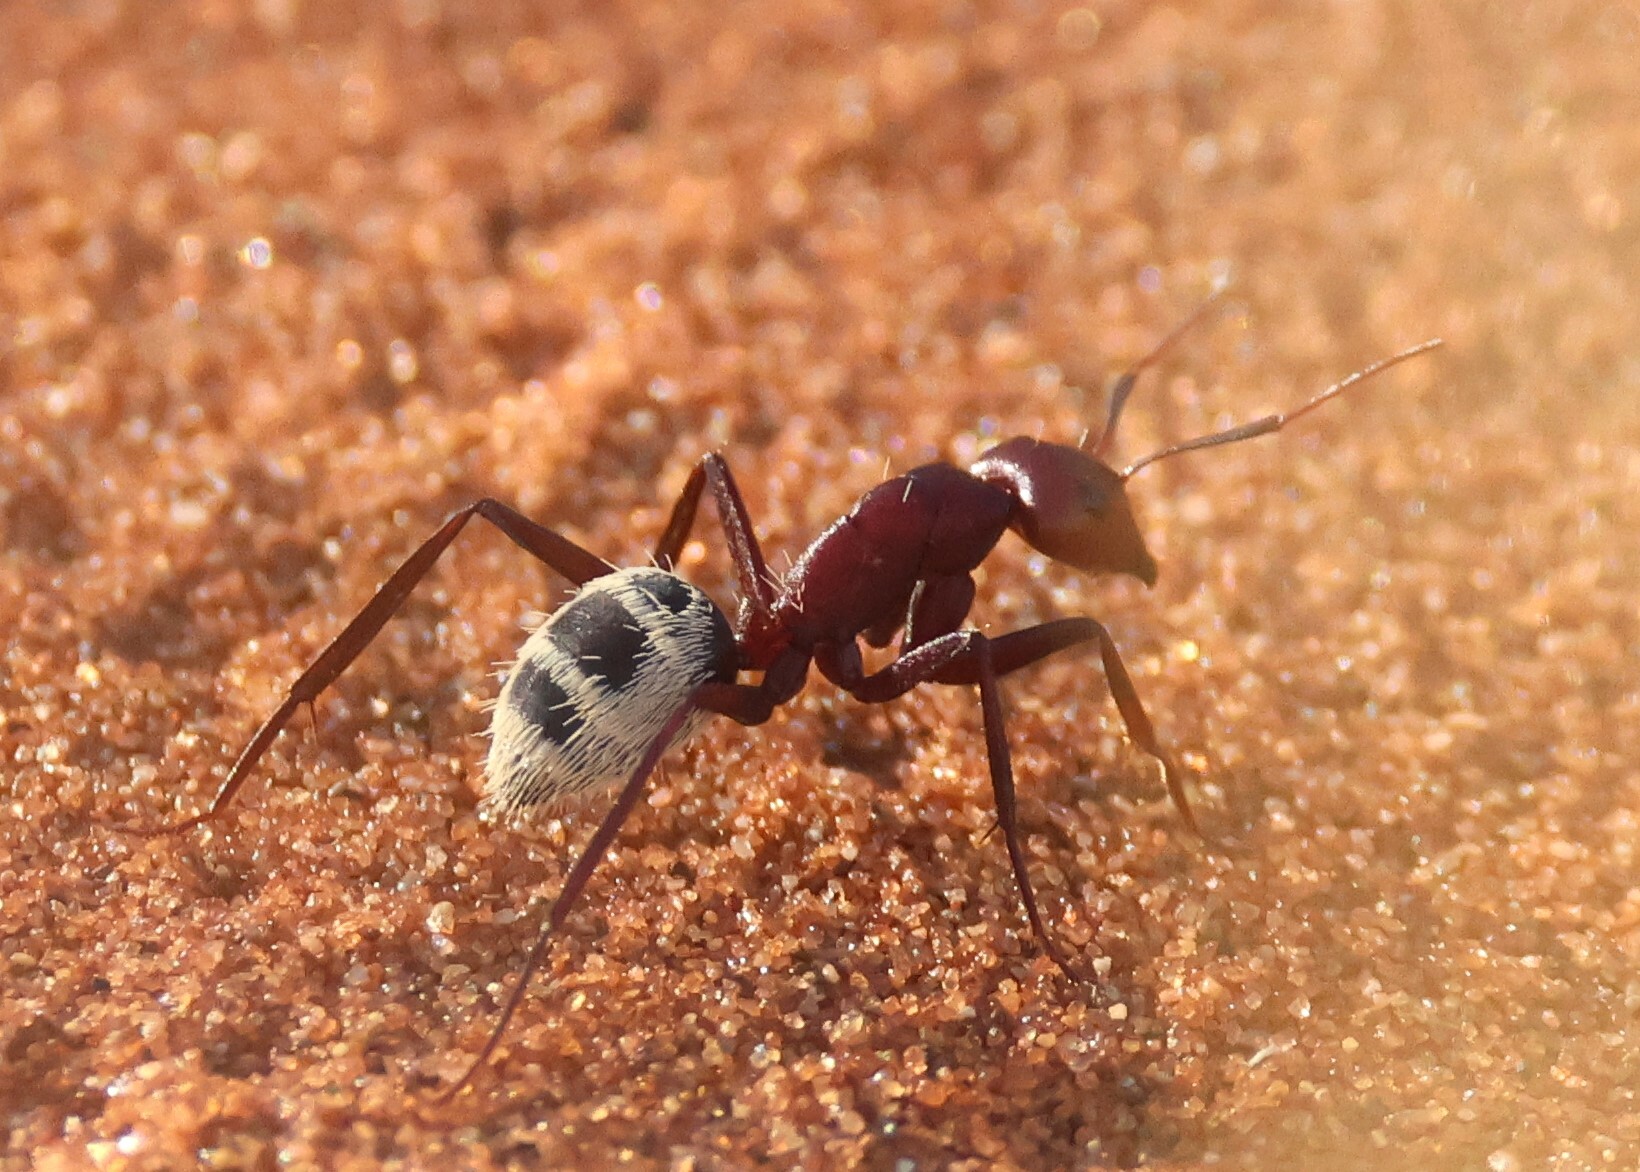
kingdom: Animalia
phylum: Arthropoda
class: Insecta
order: Hymenoptera
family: Formicidae
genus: Camponotus
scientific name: Camponotus detritus
